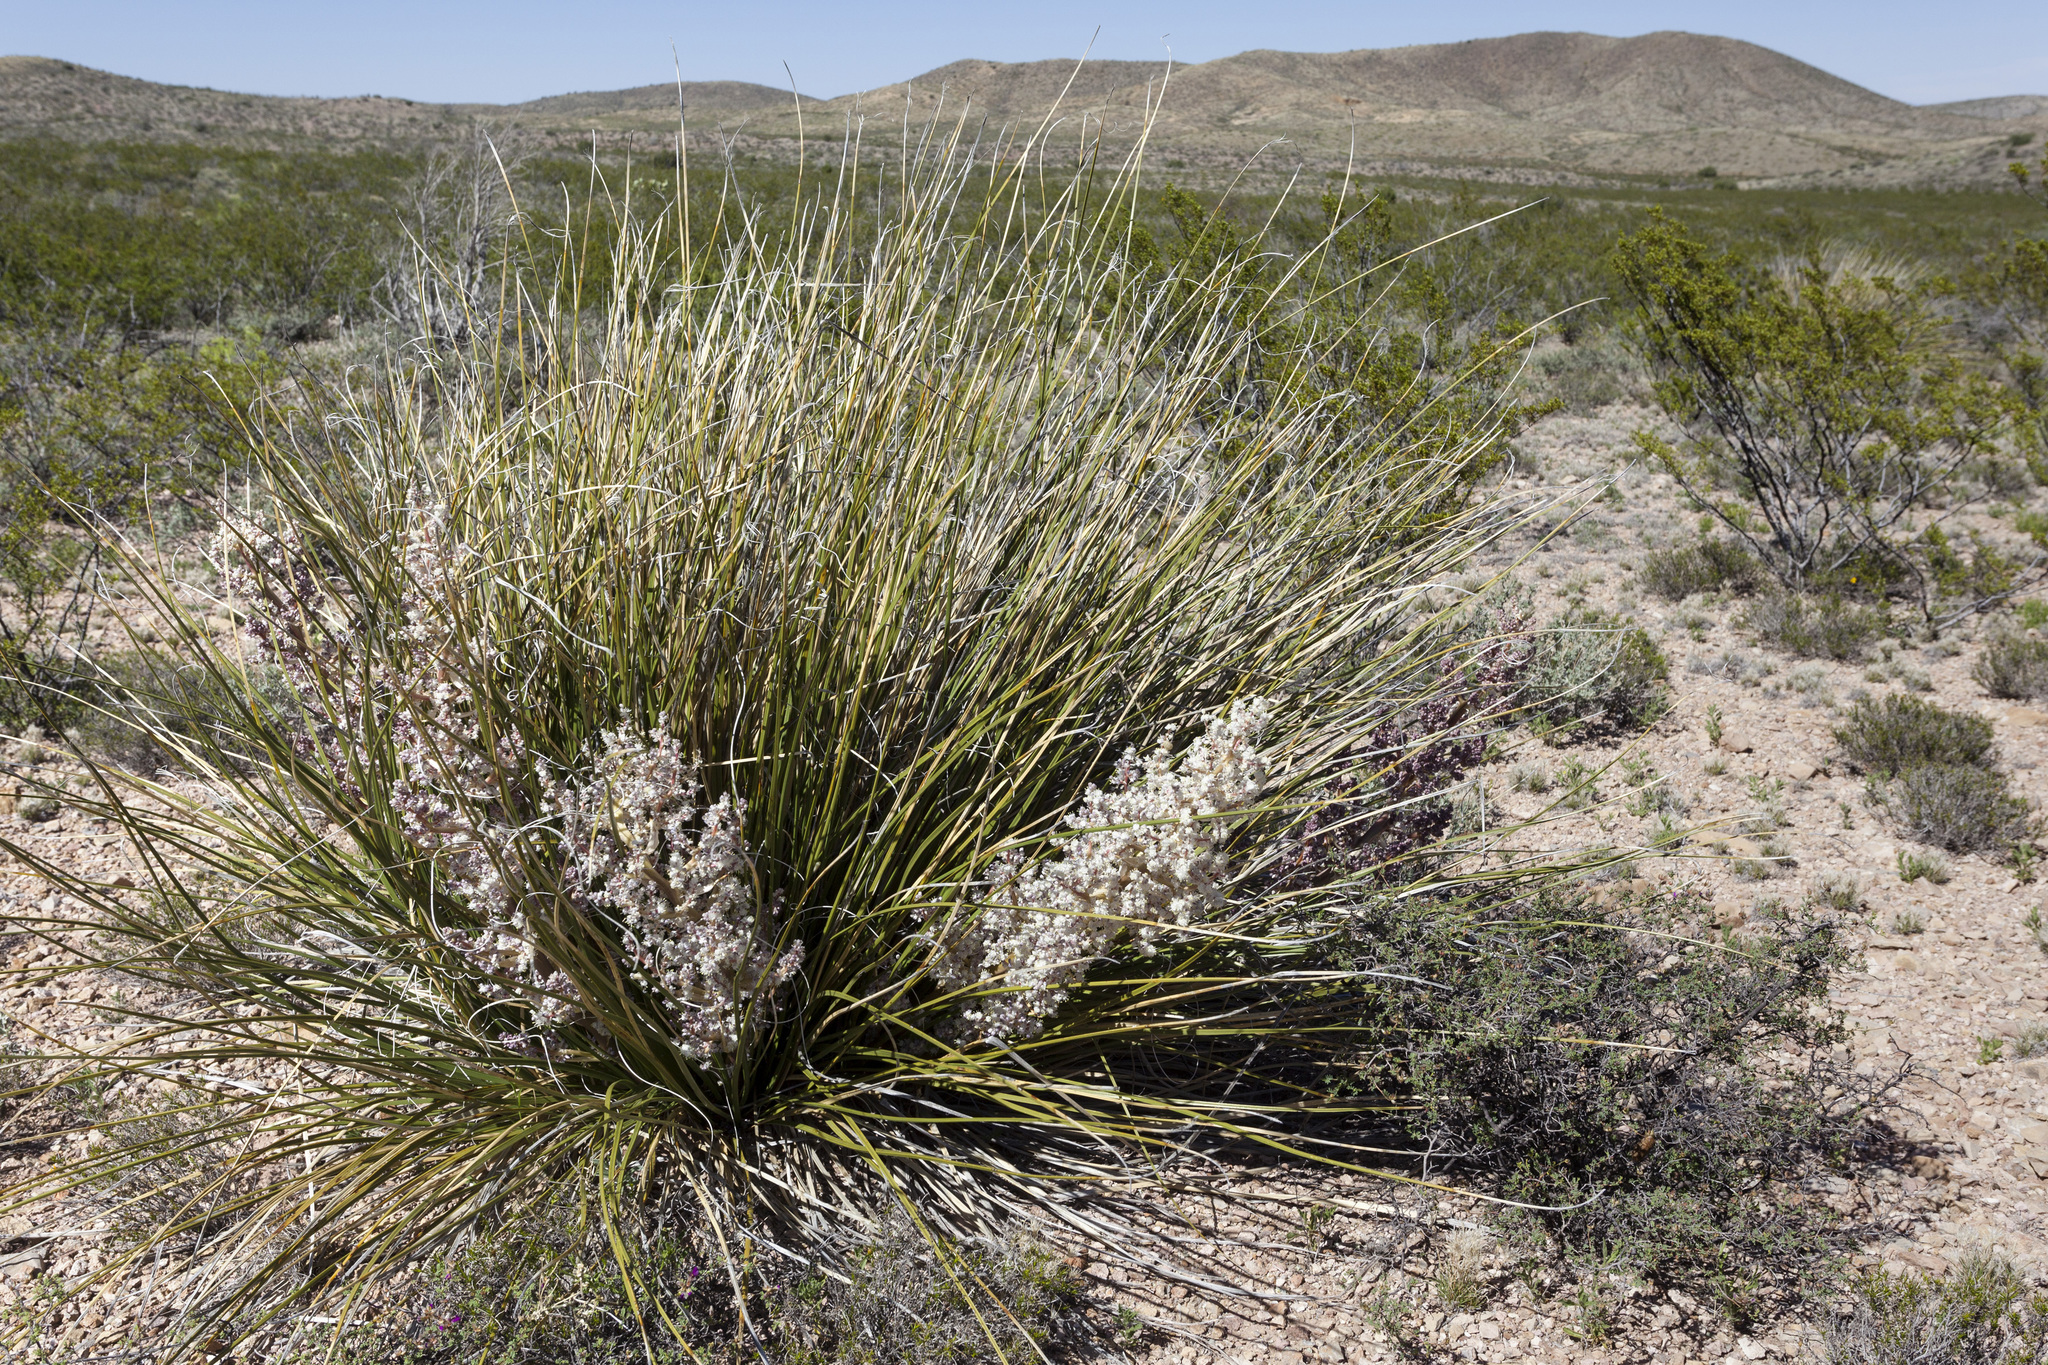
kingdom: Plantae
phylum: Tracheophyta
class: Liliopsida
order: Asparagales
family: Asparagaceae
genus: Nolina
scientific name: Nolina texana
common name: Texas sacahuiste
